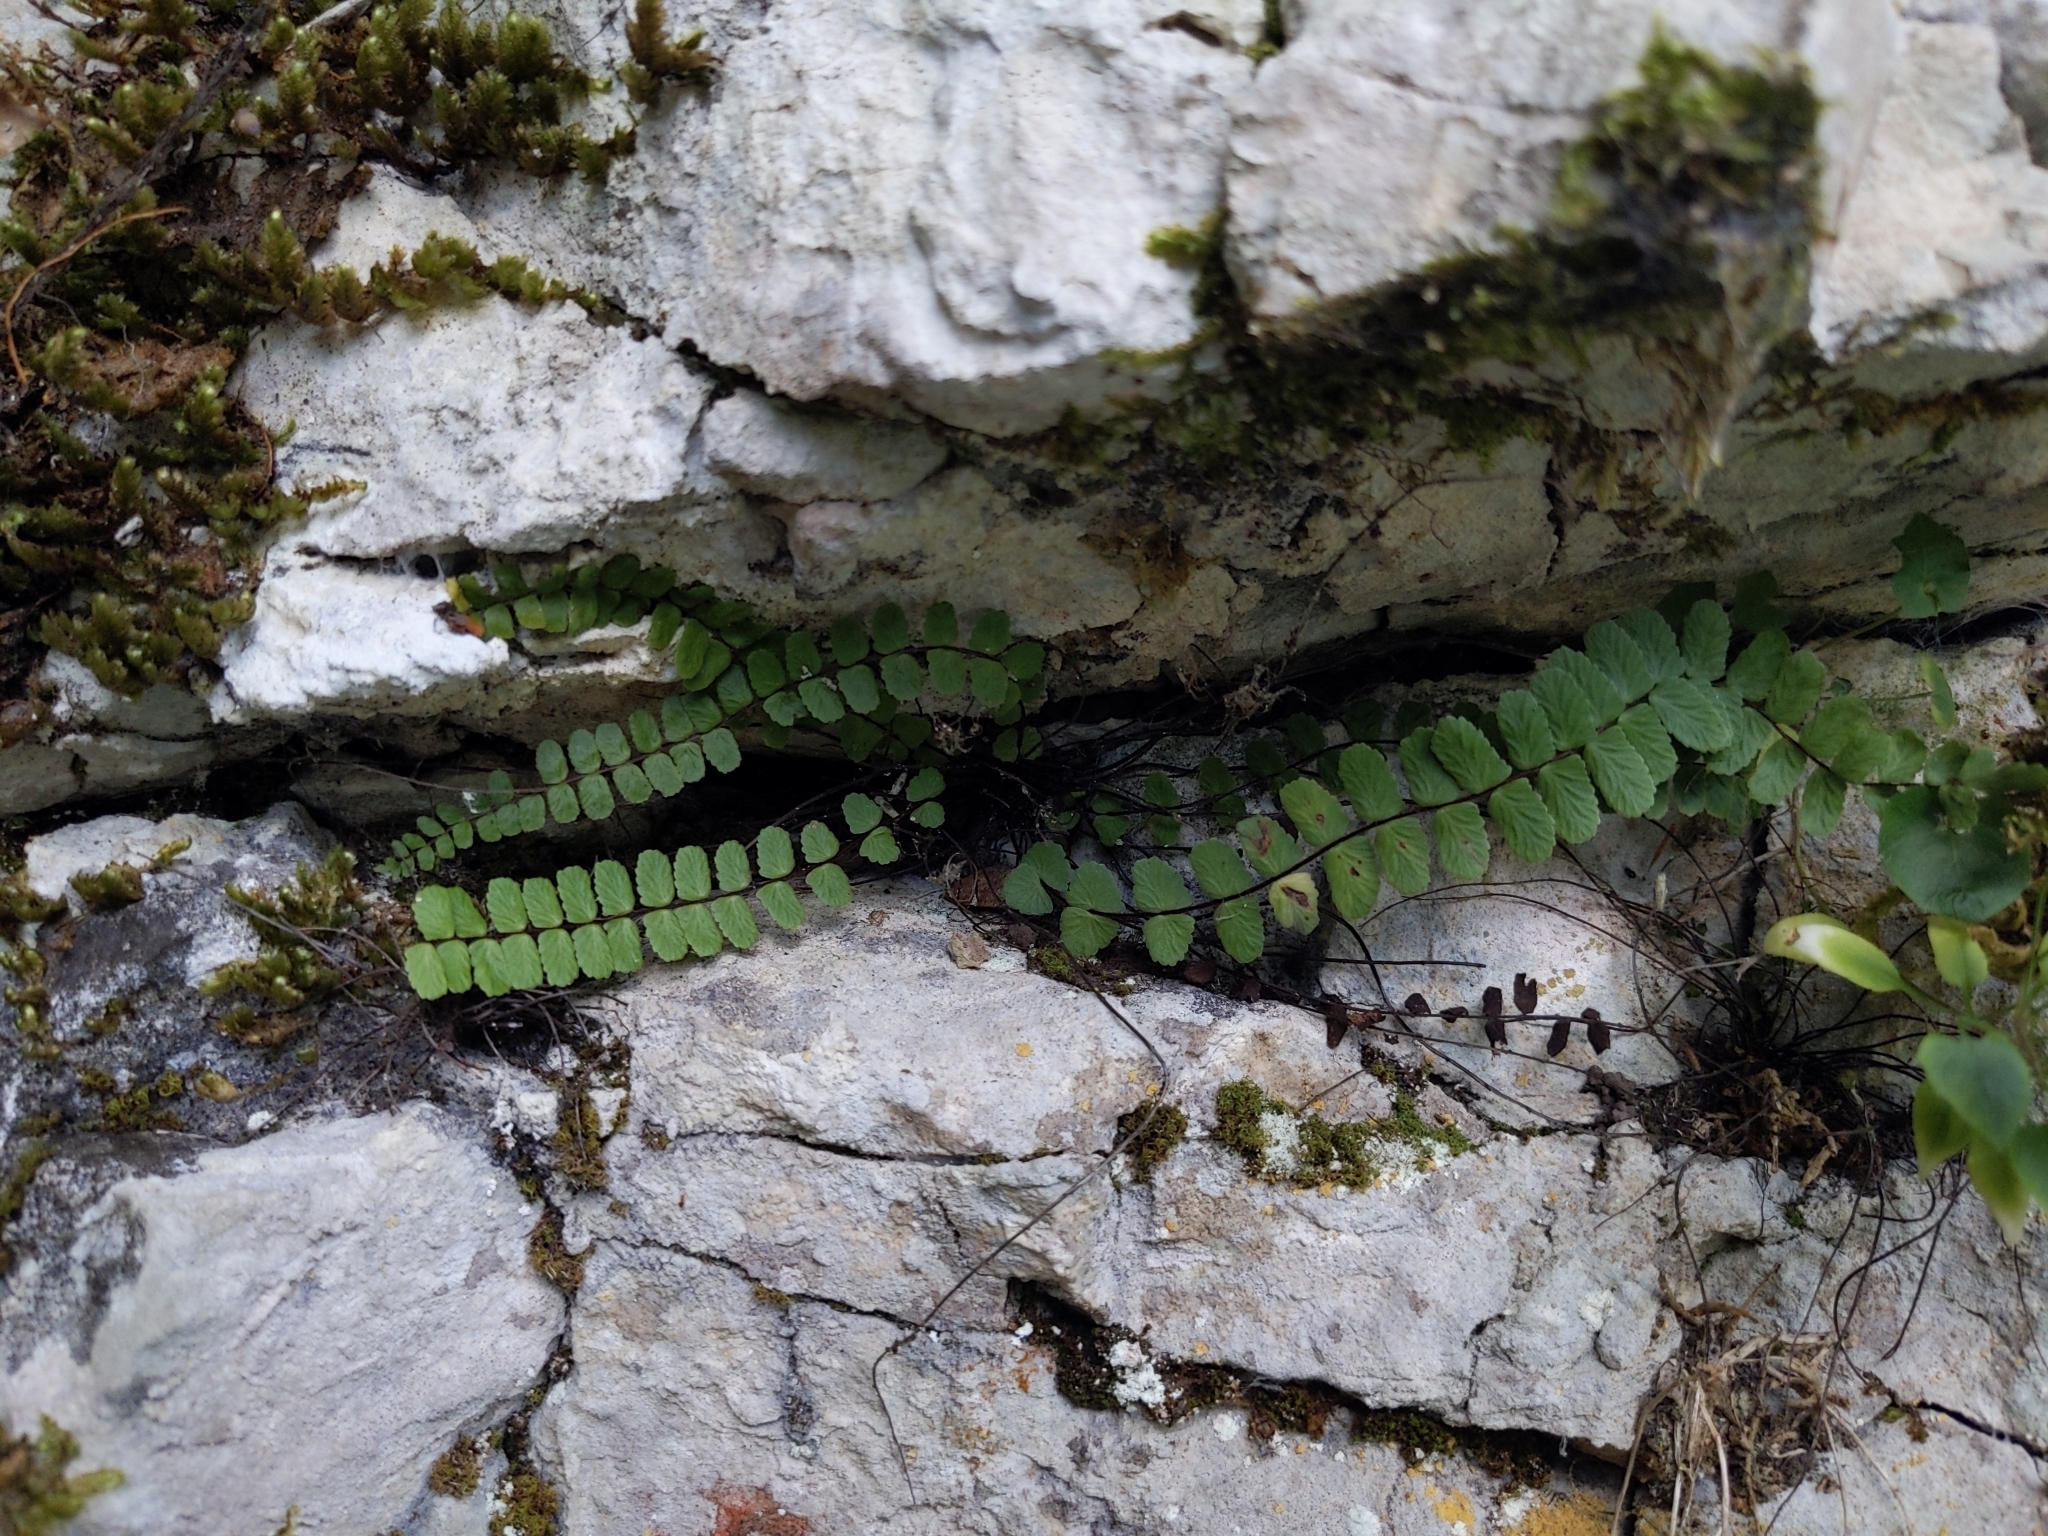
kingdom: Plantae
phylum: Tracheophyta
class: Polypodiopsida
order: Polypodiales
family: Aspleniaceae
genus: Asplenium
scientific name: Asplenium trichomanes
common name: Maidenhair spleenwort
